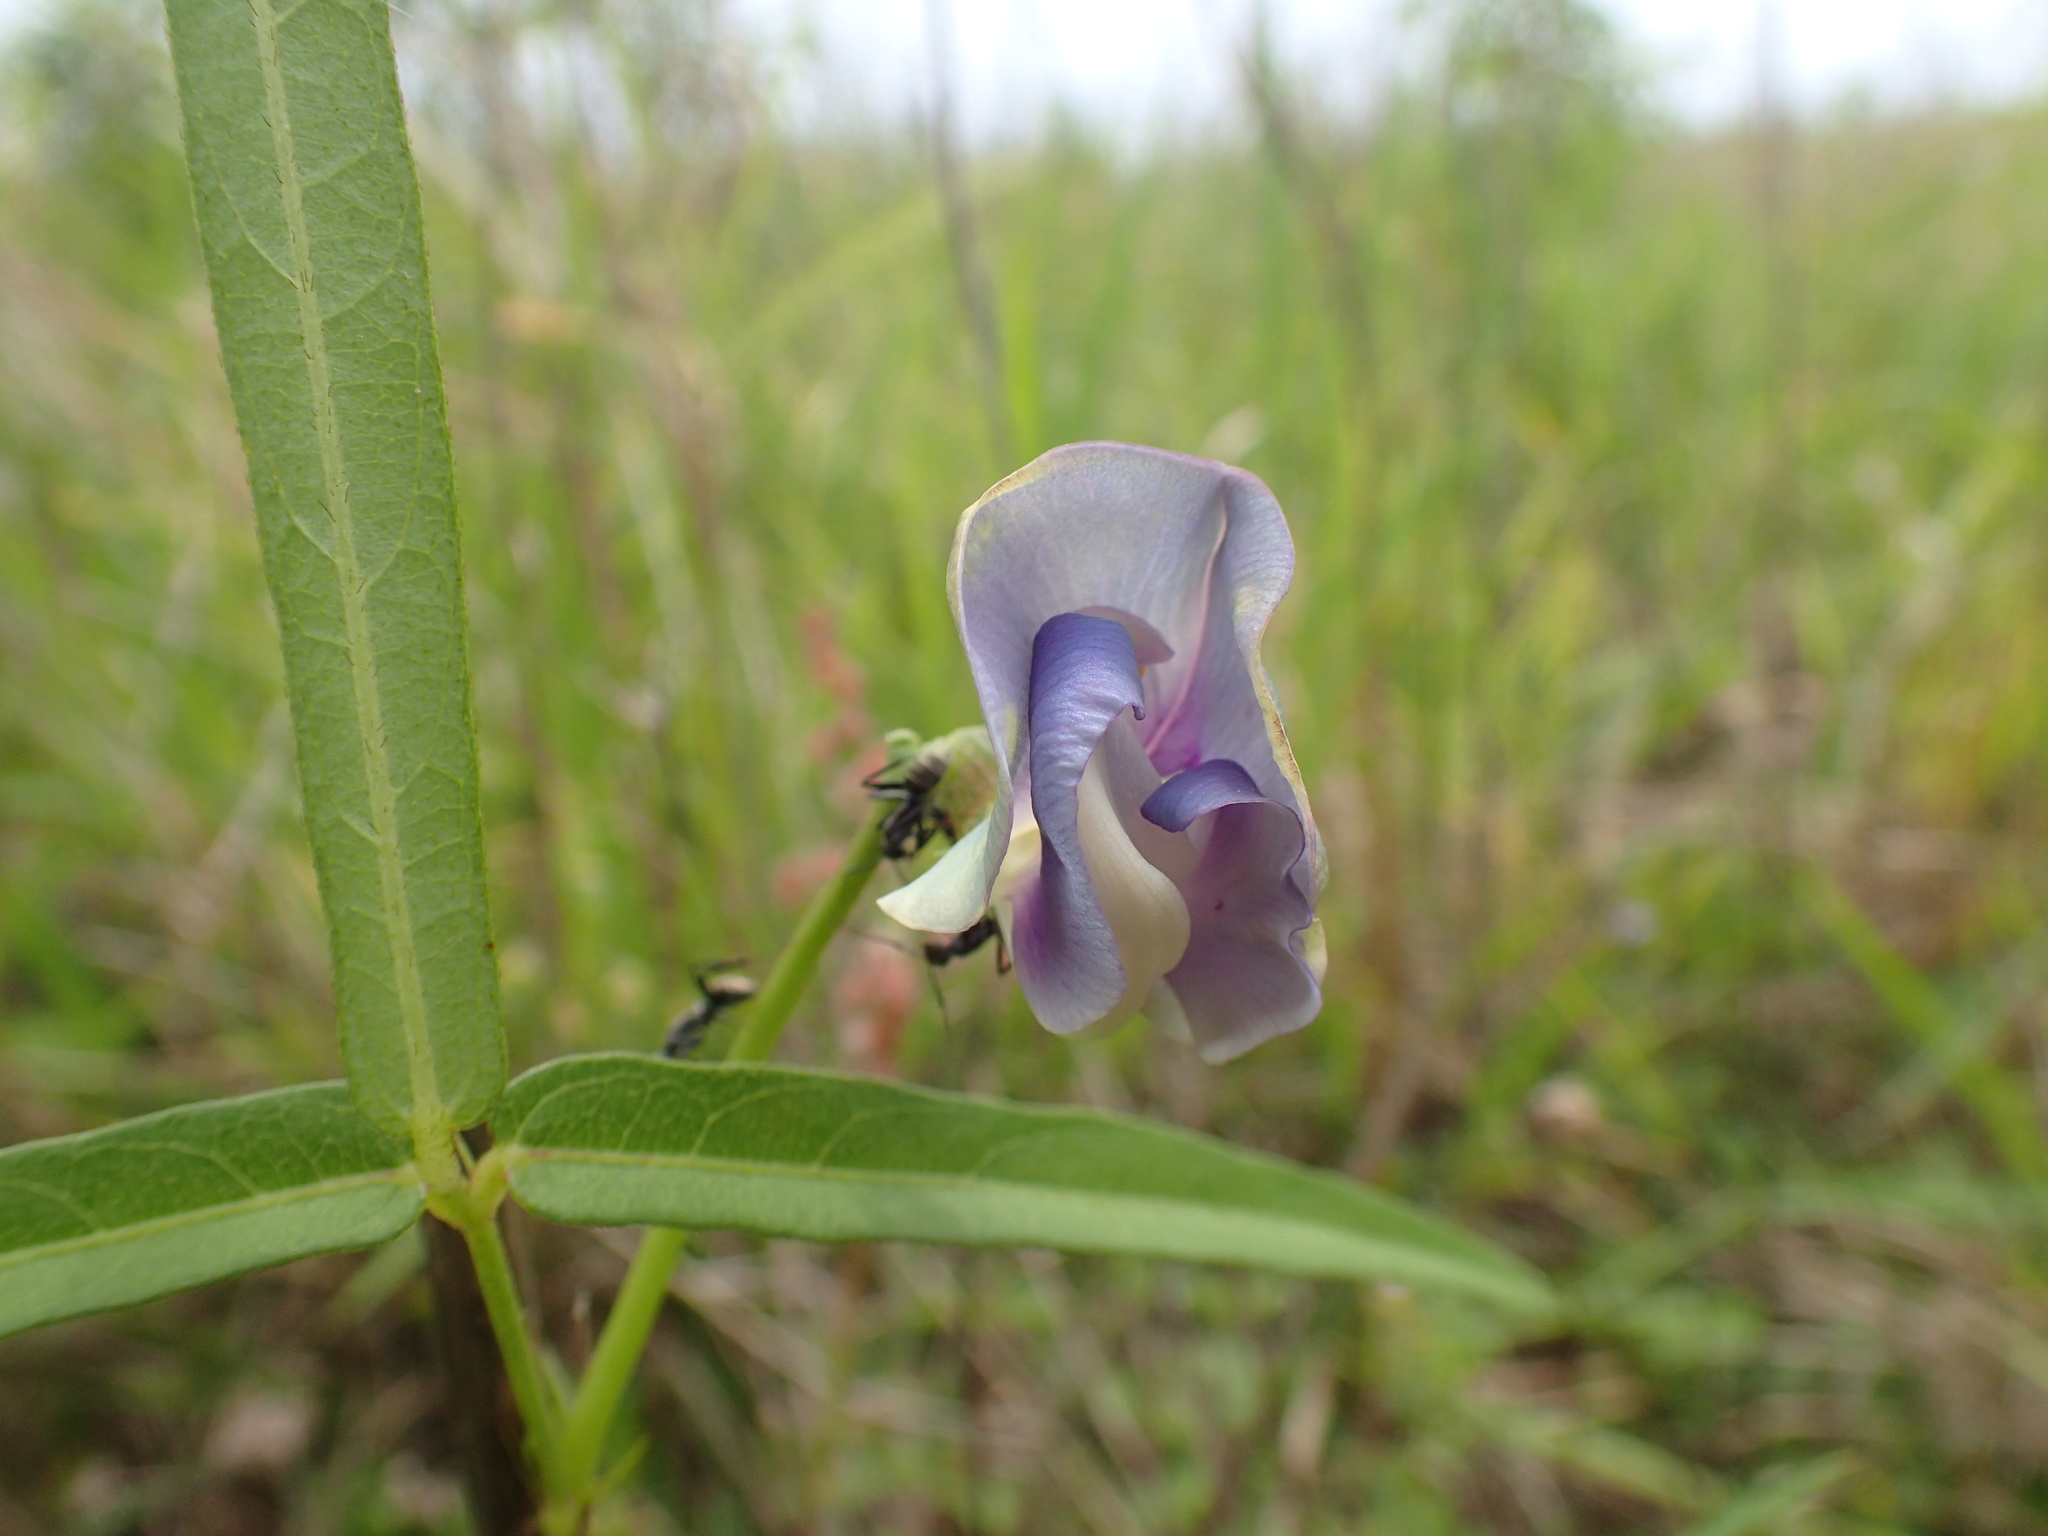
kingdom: Plantae
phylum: Tracheophyta
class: Magnoliopsida
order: Fabales
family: Fabaceae
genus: Vigna
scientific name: Vigna unguiculata
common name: Cowpea
